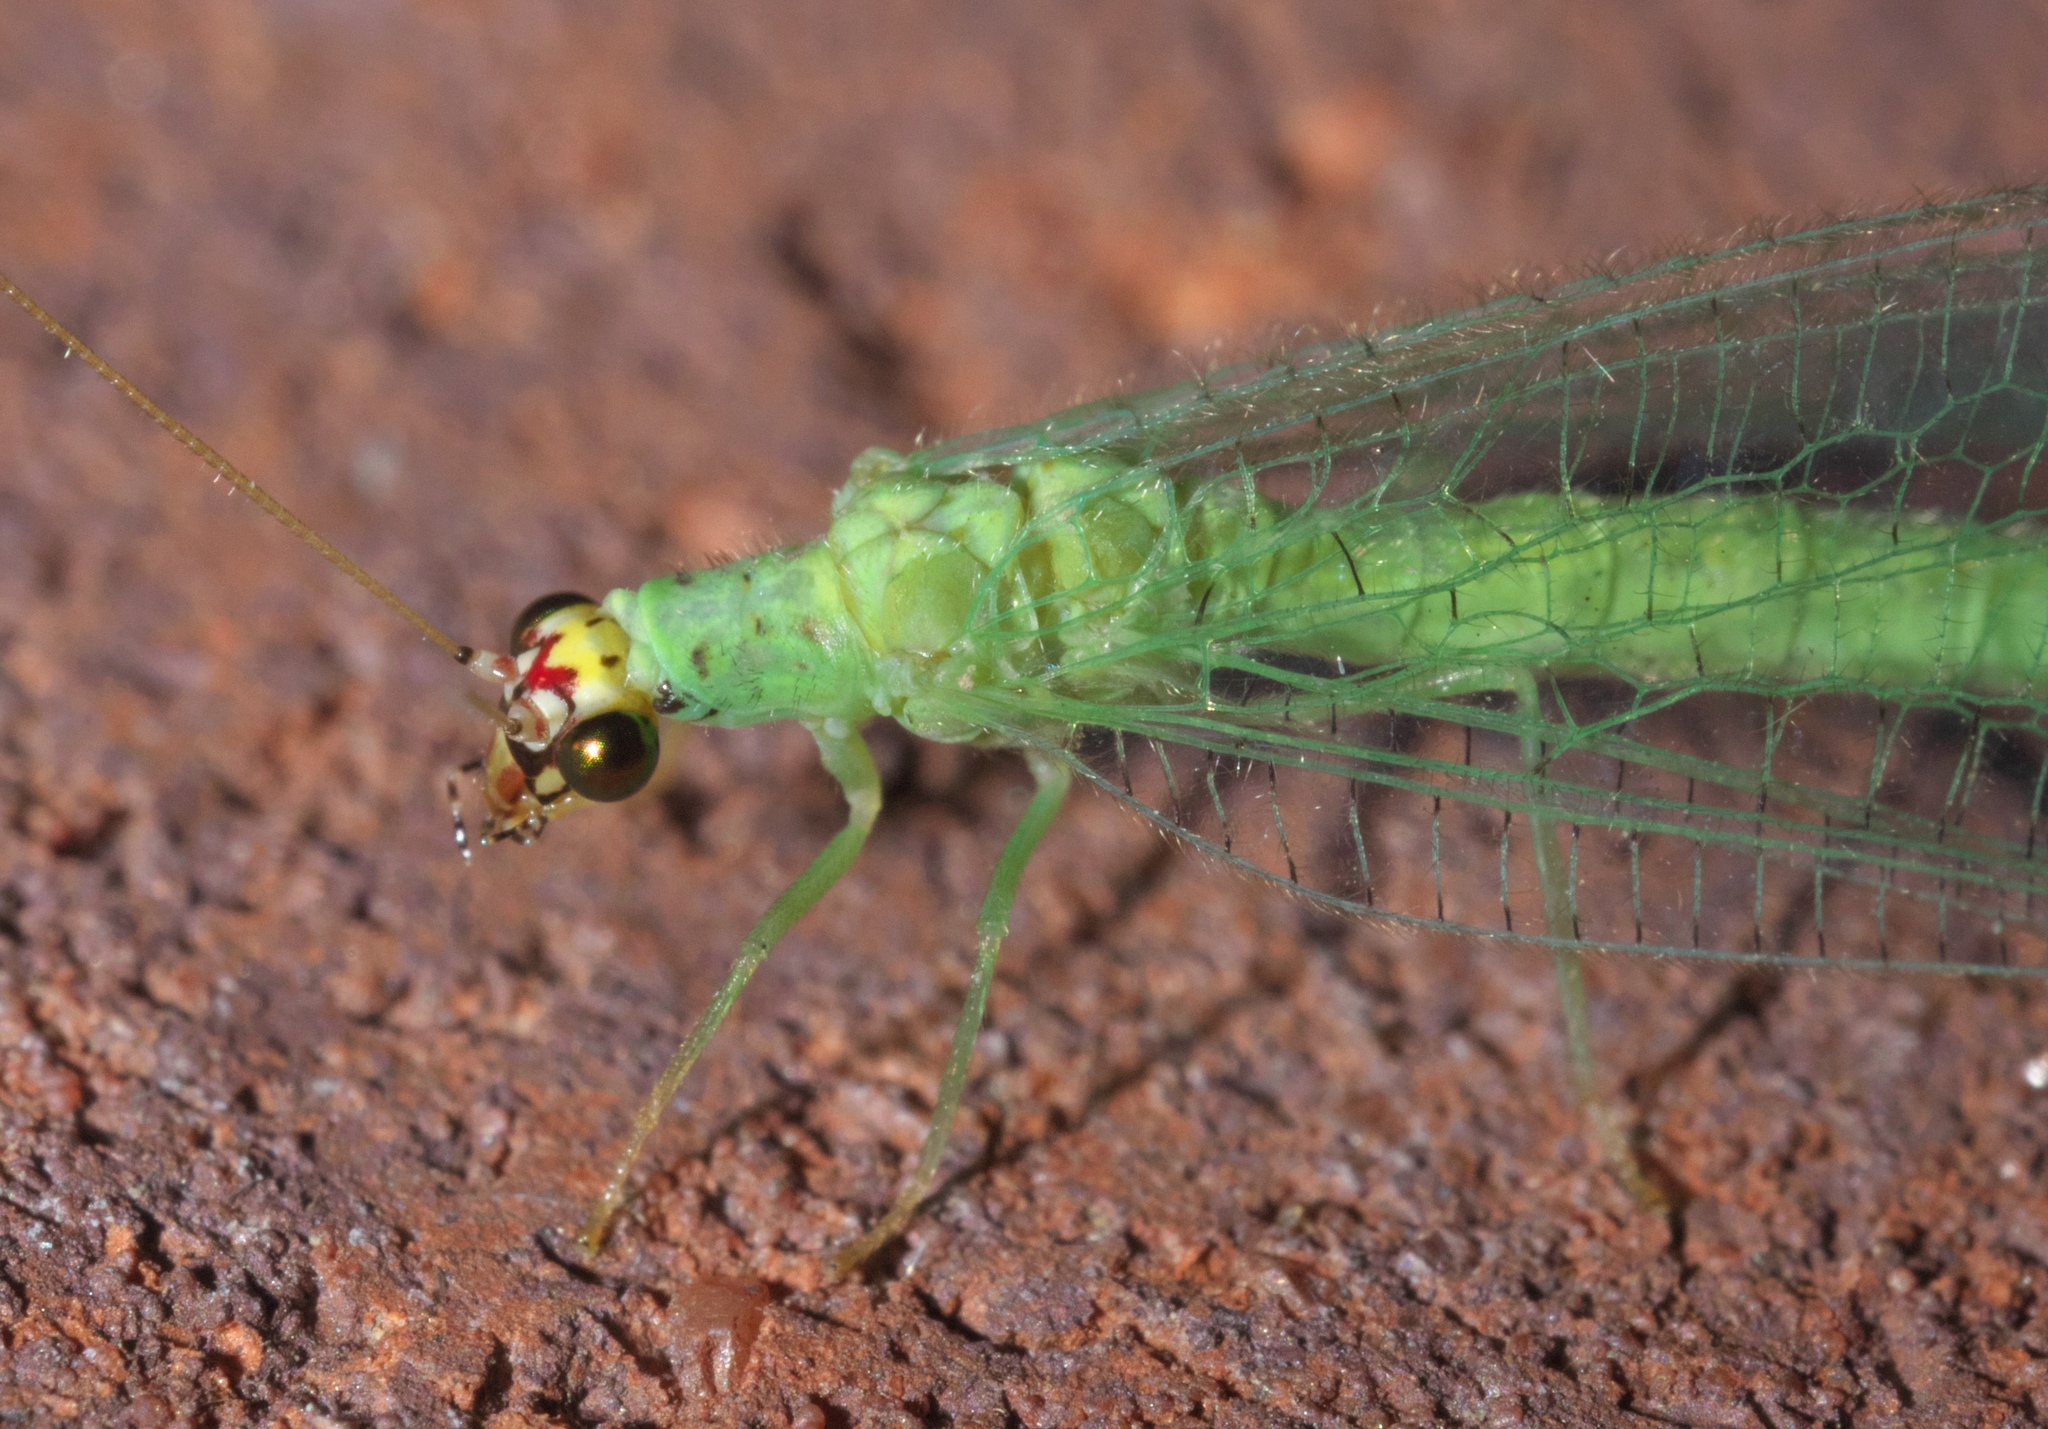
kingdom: Animalia
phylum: Arthropoda
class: Insecta
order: Neuroptera
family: Chrysopidae
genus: Chrysopa
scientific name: Chrysopa oculata
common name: Golden-eyed lacewing
